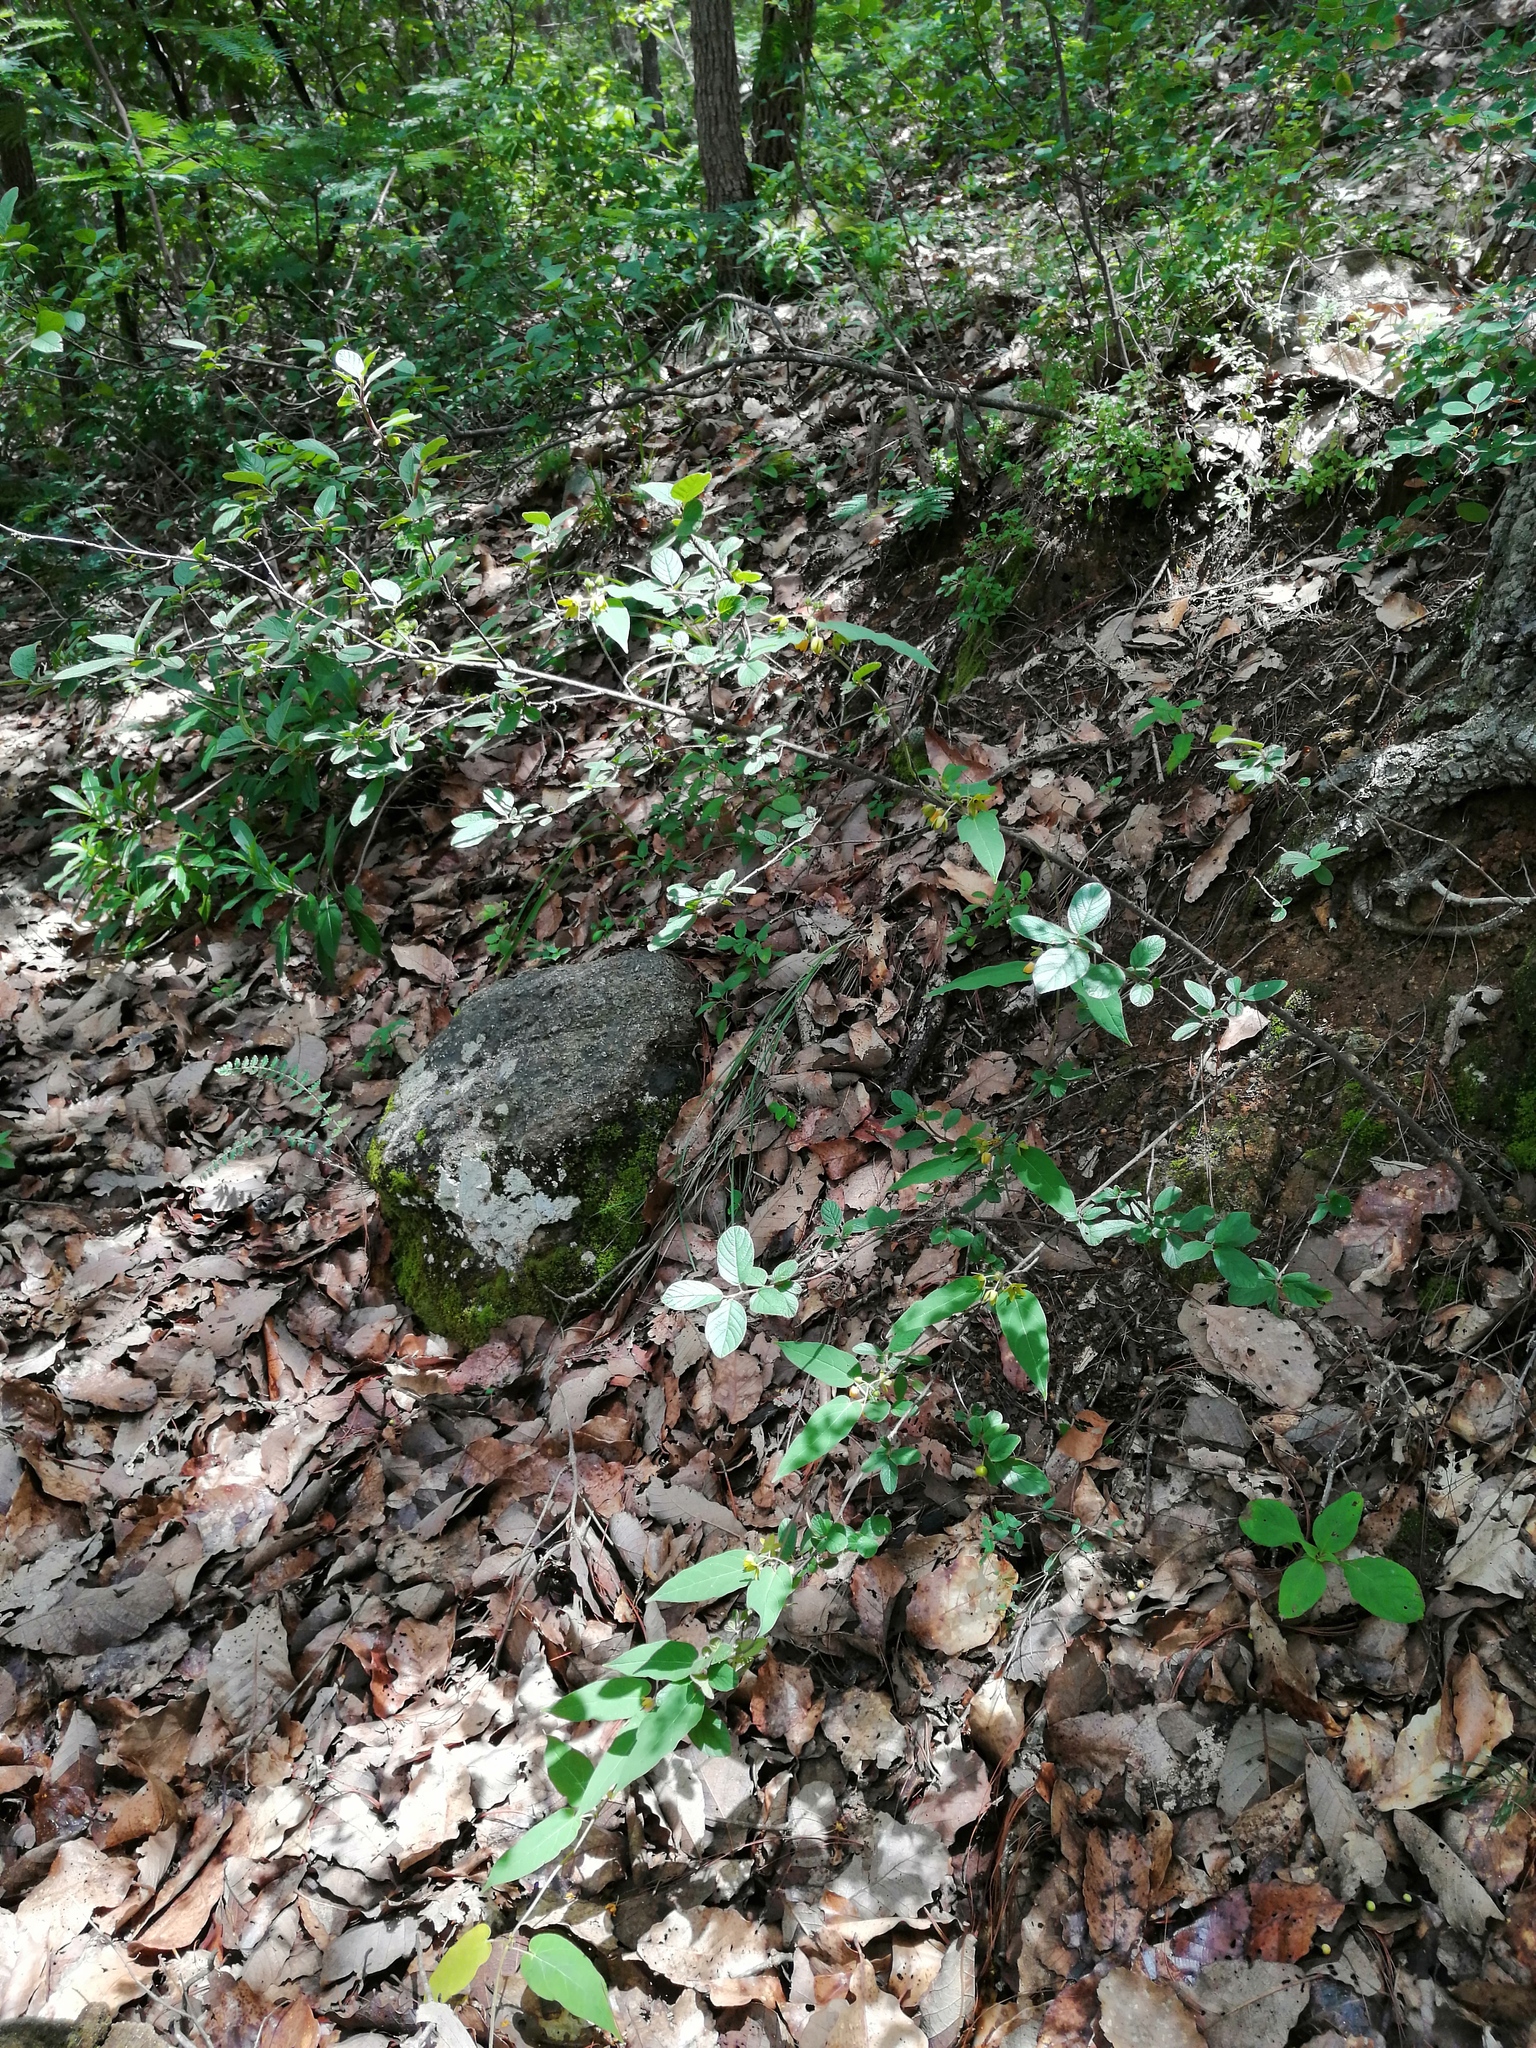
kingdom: Plantae
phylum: Tracheophyta
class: Magnoliopsida
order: Gentianales
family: Apocynaceae
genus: Matelea
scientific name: Matelea chrysantha
